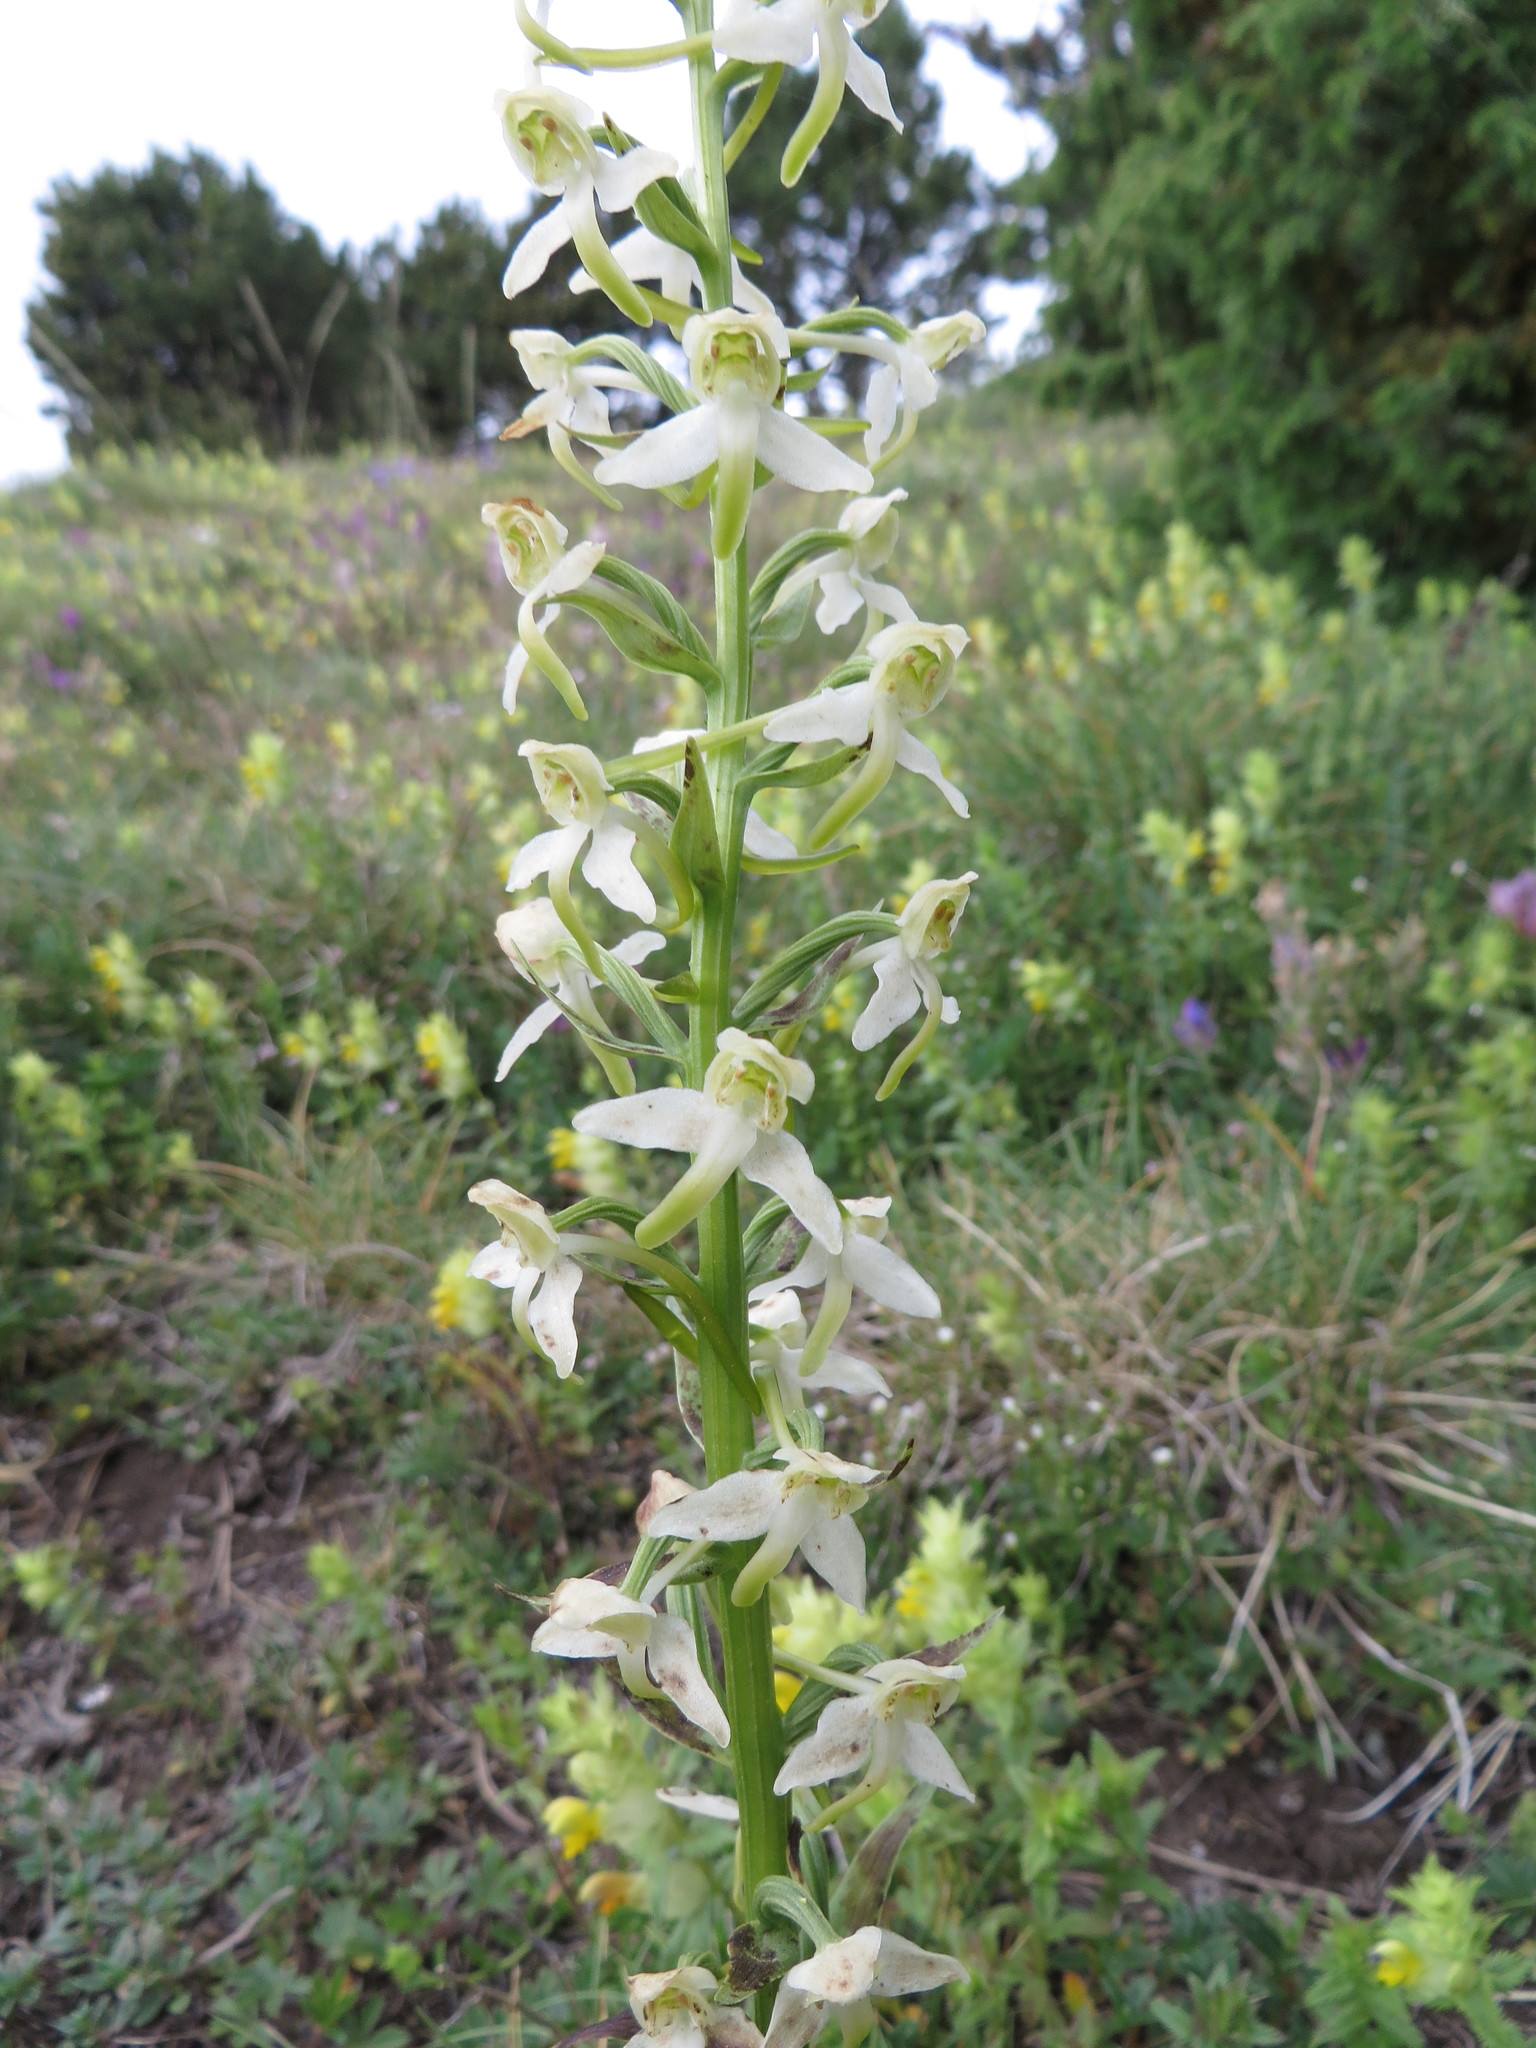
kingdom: Plantae
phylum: Tracheophyta
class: Liliopsida
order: Asparagales
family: Orchidaceae
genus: Platanthera
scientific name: Platanthera chlorantha
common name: Greater butterfly-orchid
